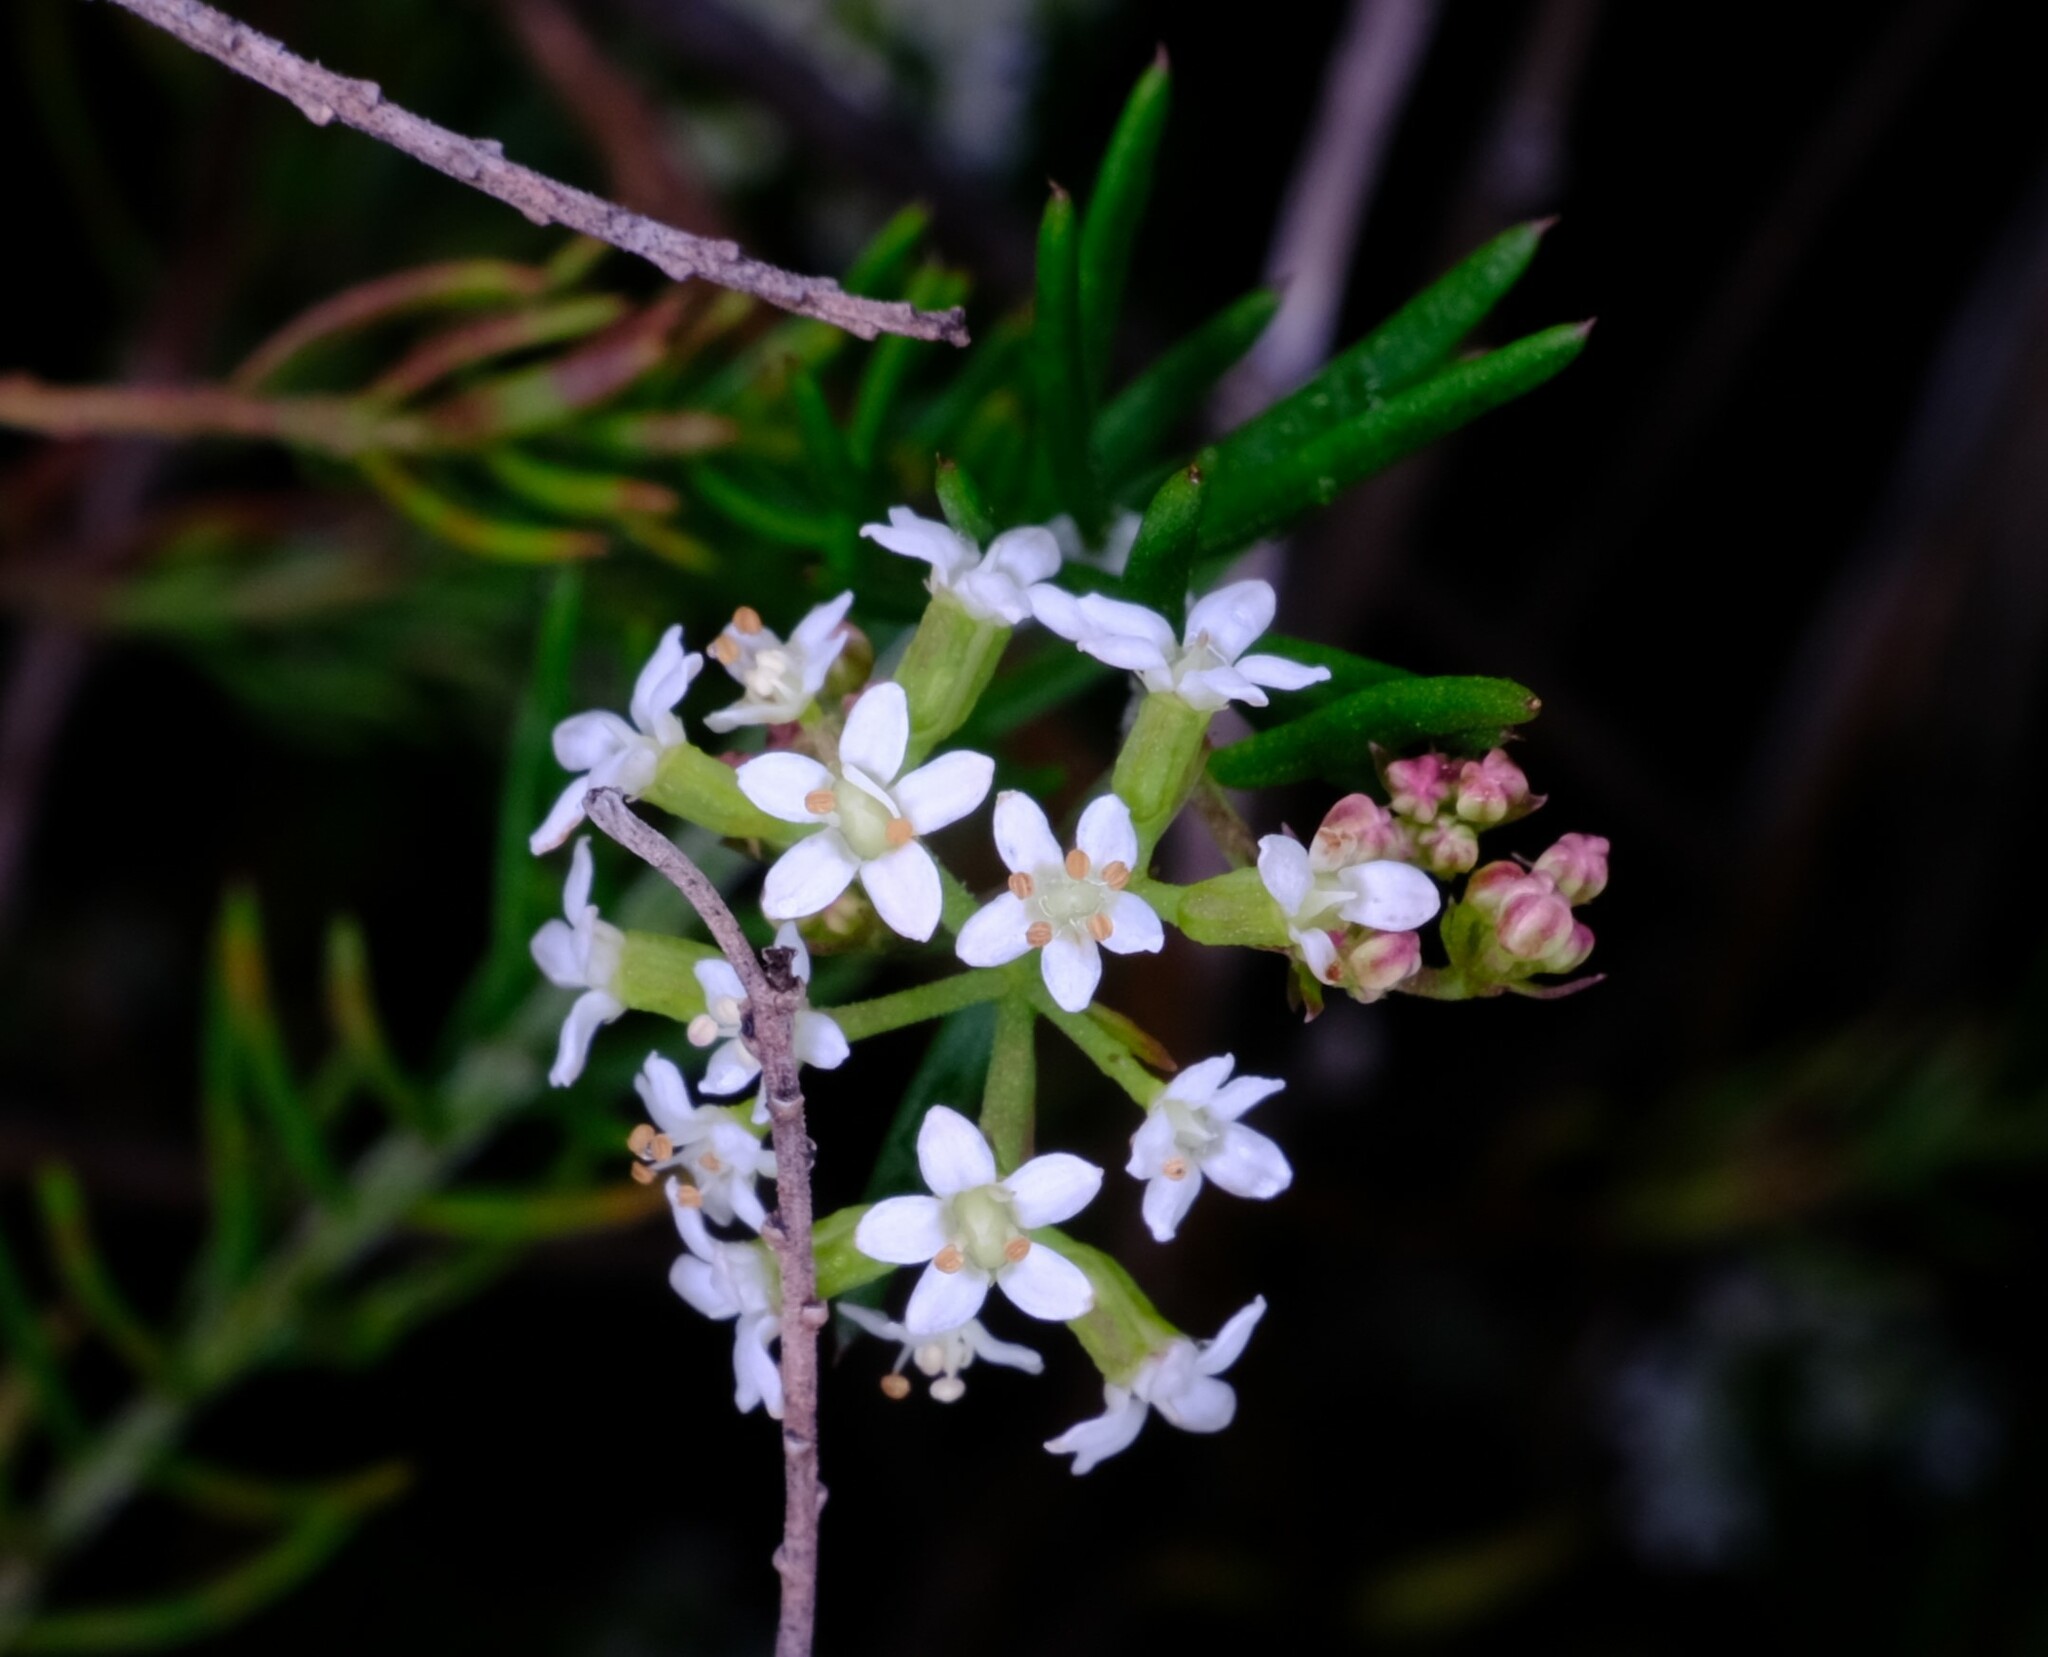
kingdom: Plantae
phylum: Tracheophyta
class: Magnoliopsida
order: Apiales
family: Apiaceae
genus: Platysace
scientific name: Platysace ericoides
